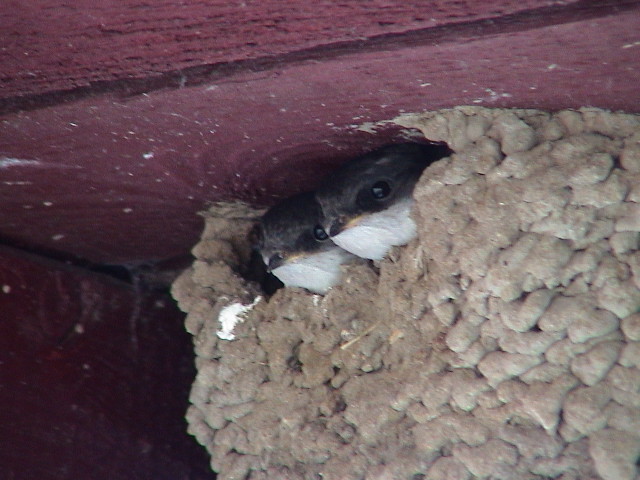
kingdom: Animalia
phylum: Chordata
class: Aves
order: Passeriformes
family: Hirundinidae
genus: Delichon
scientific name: Delichon urbicum
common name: Common house martin
